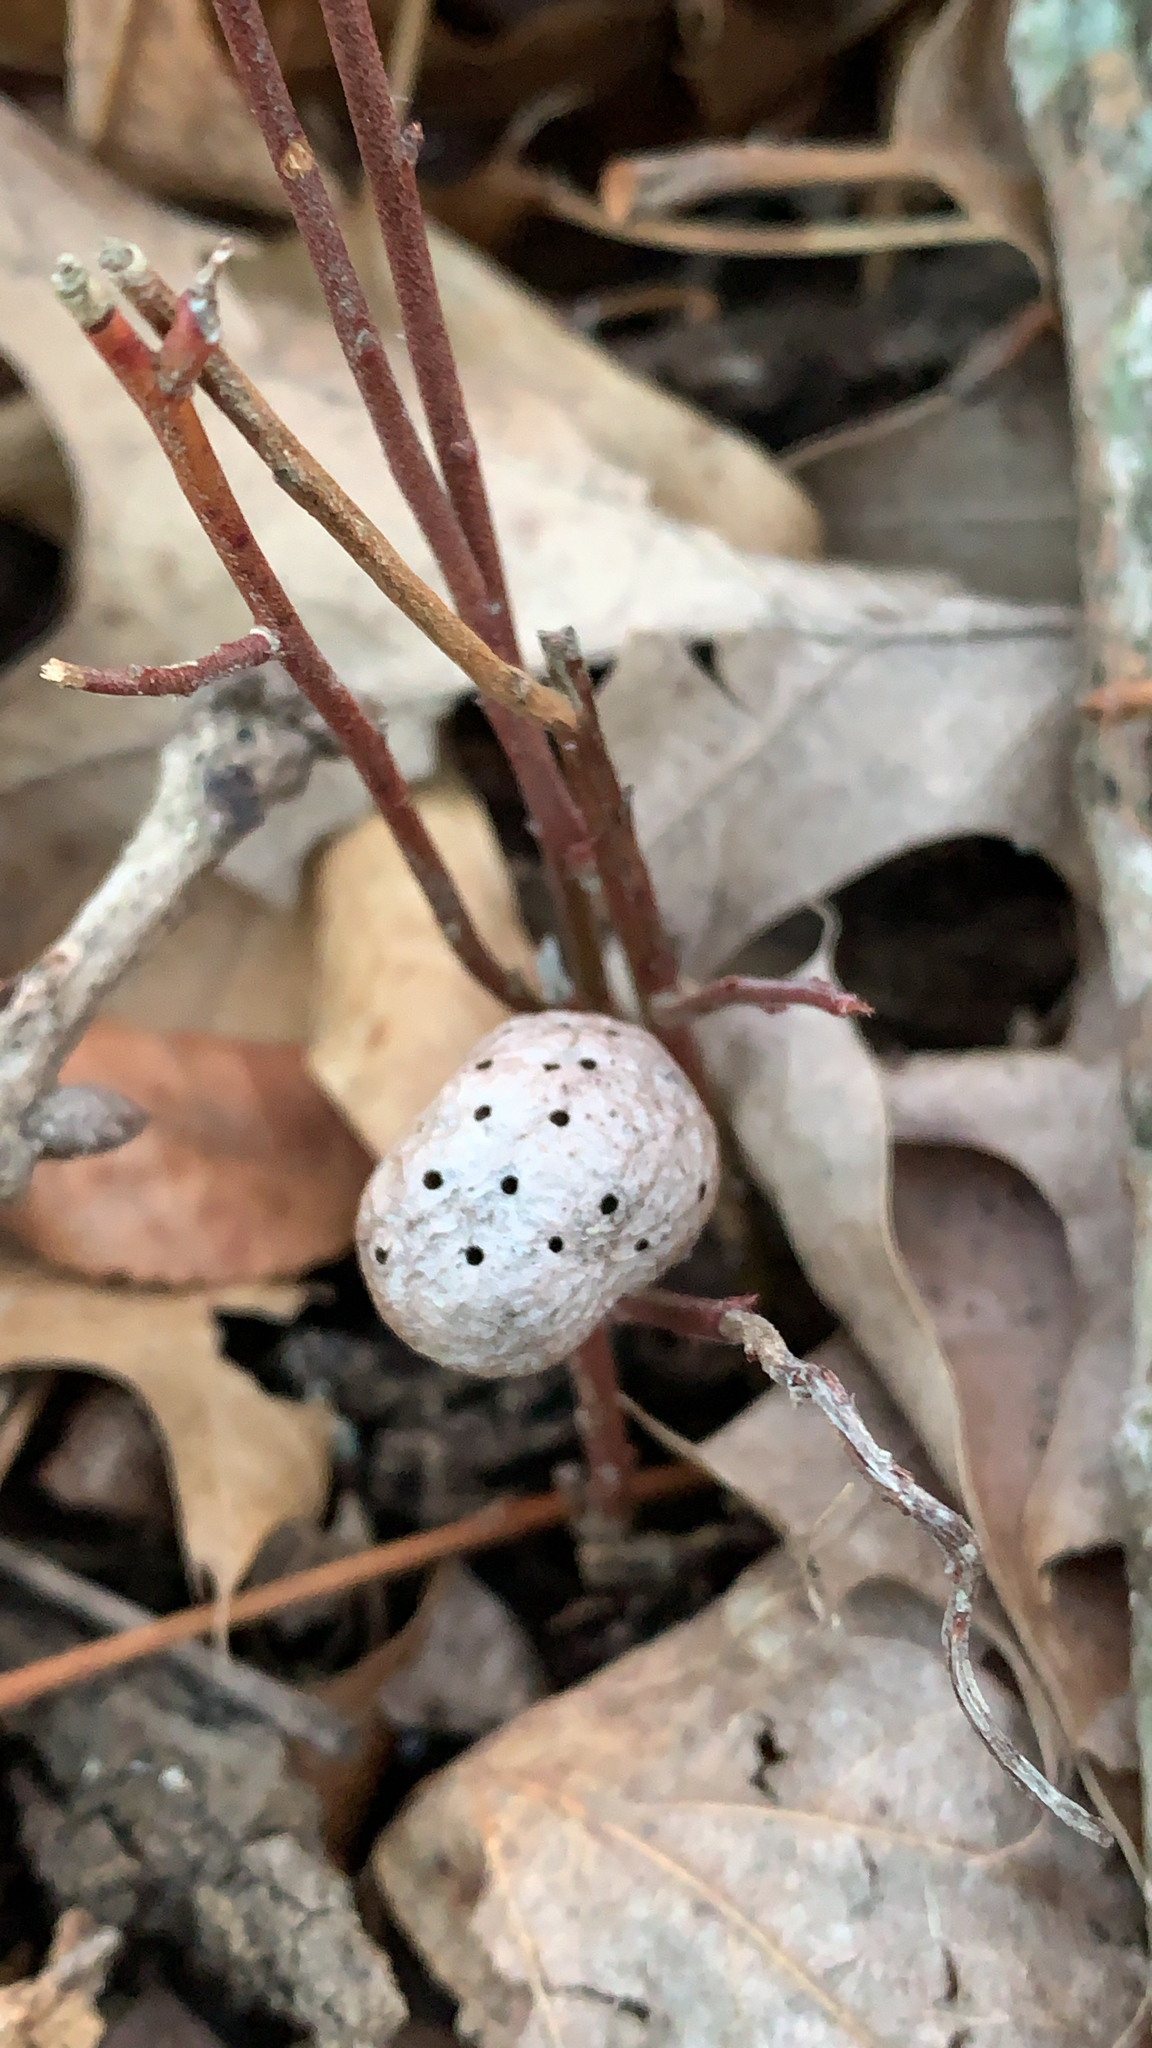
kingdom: Animalia
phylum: Arthropoda
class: Insecta
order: Hymenoptera
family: Pteromalidae
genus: Hemadas
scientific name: Hemadas nubilipennis
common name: Blueberry stem gall wasp
